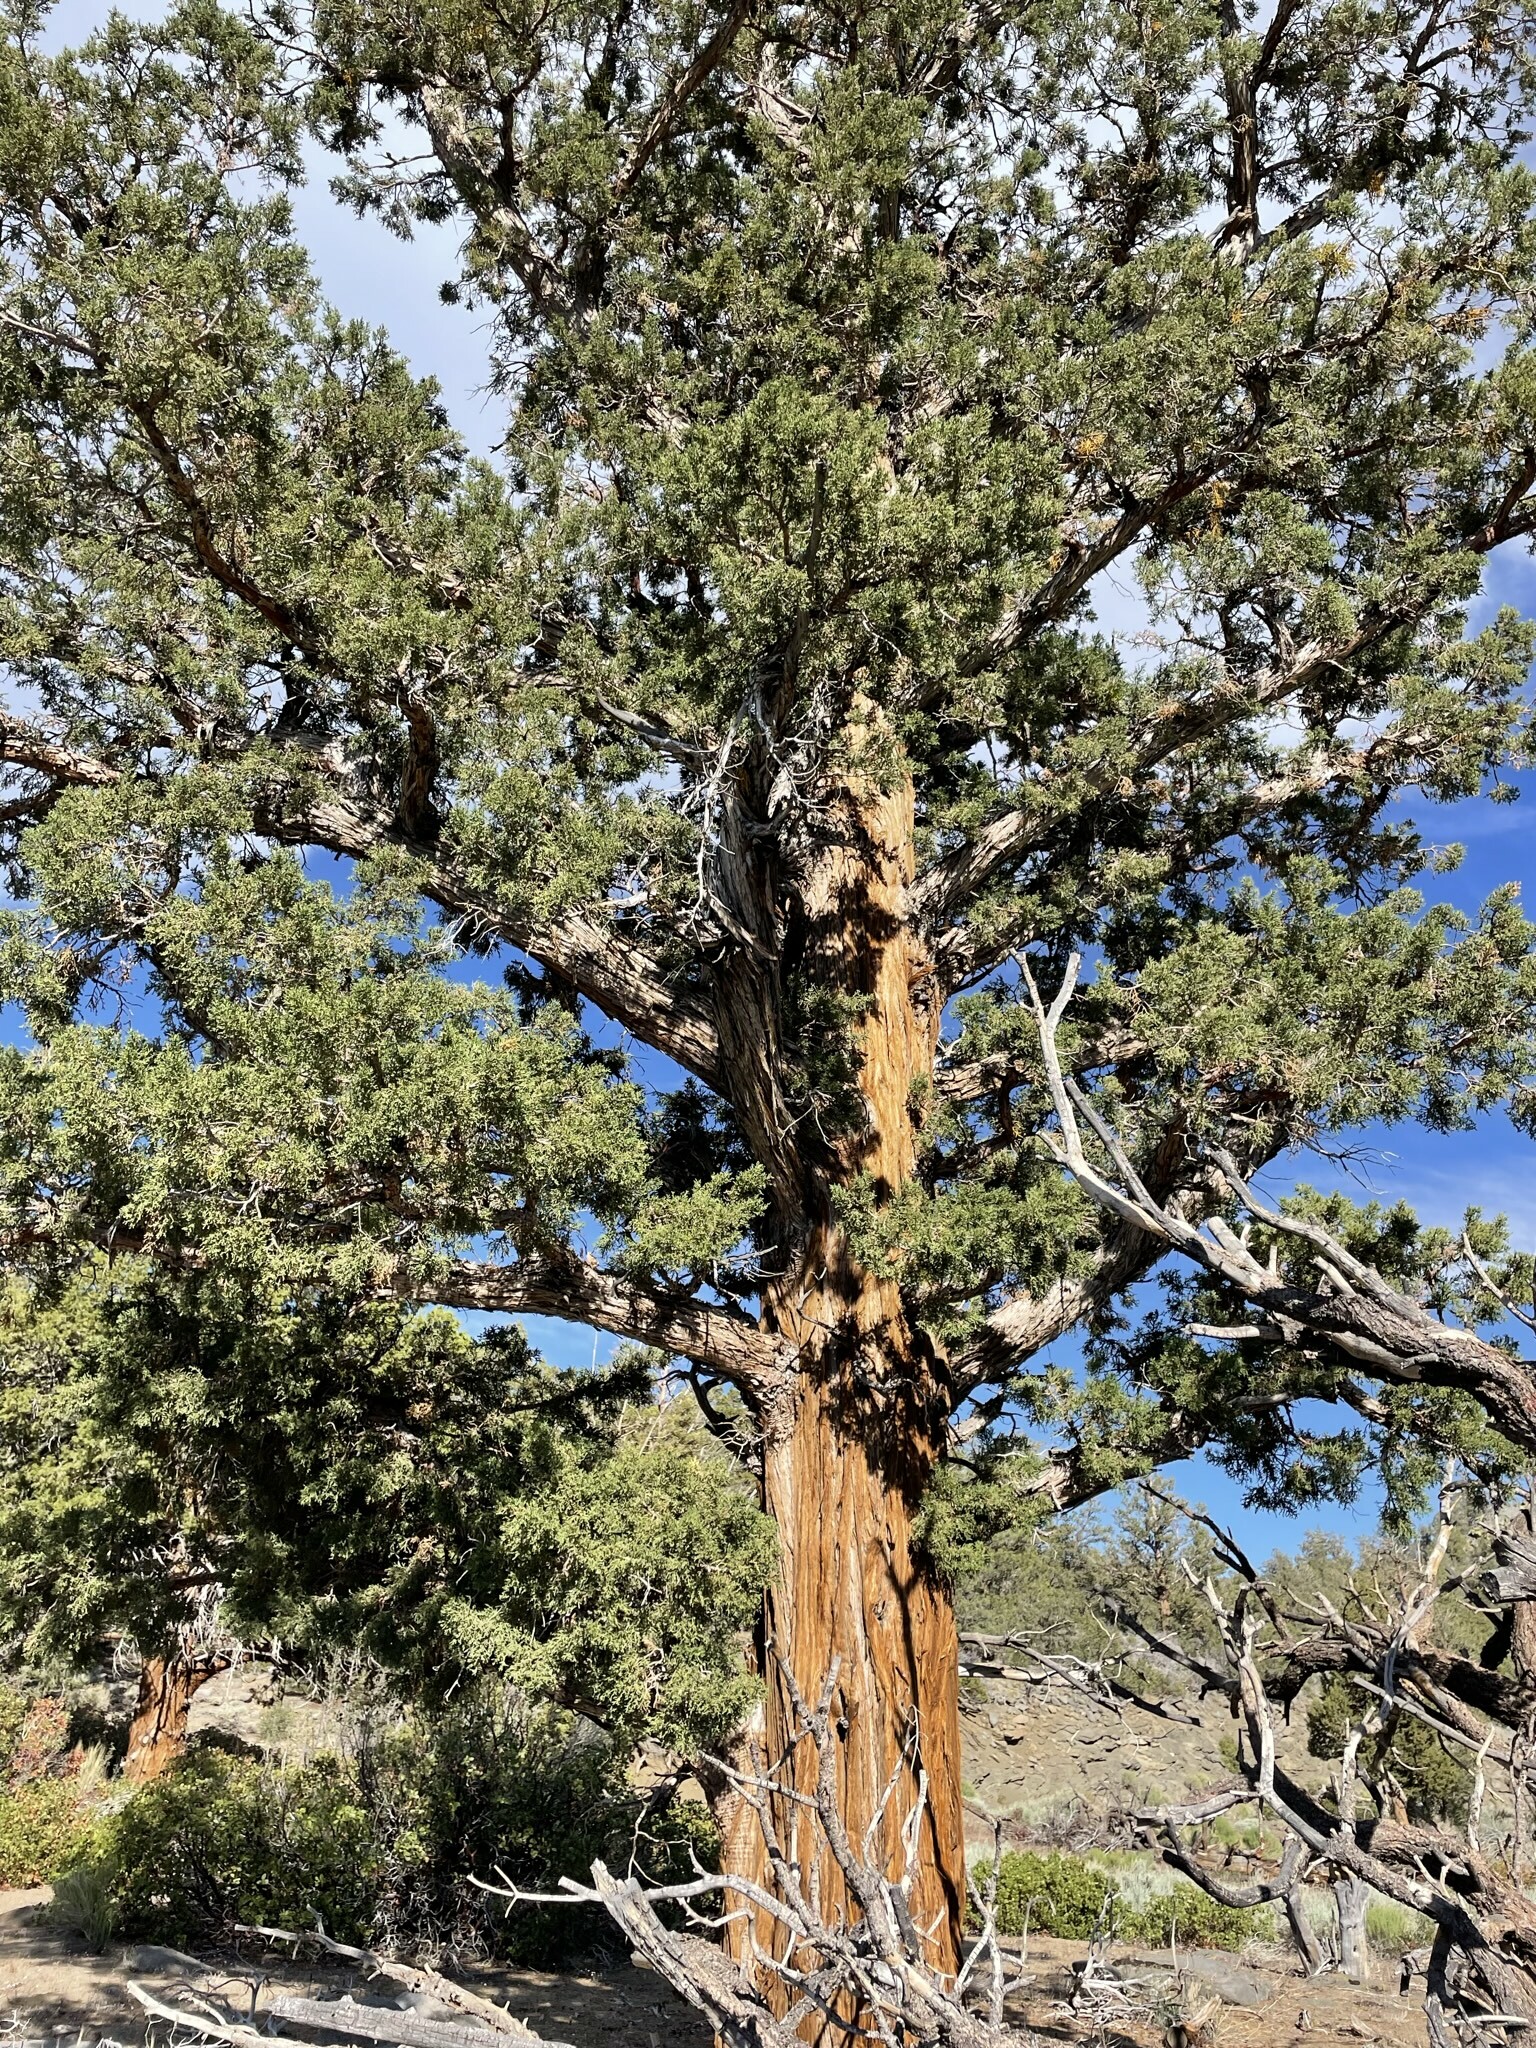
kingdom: Plantae
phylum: Tracheophyta
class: Pinopsida
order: Pinales
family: Cupressaceae
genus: Juniperus
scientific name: Juniperus occidentalis
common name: Western juniper
